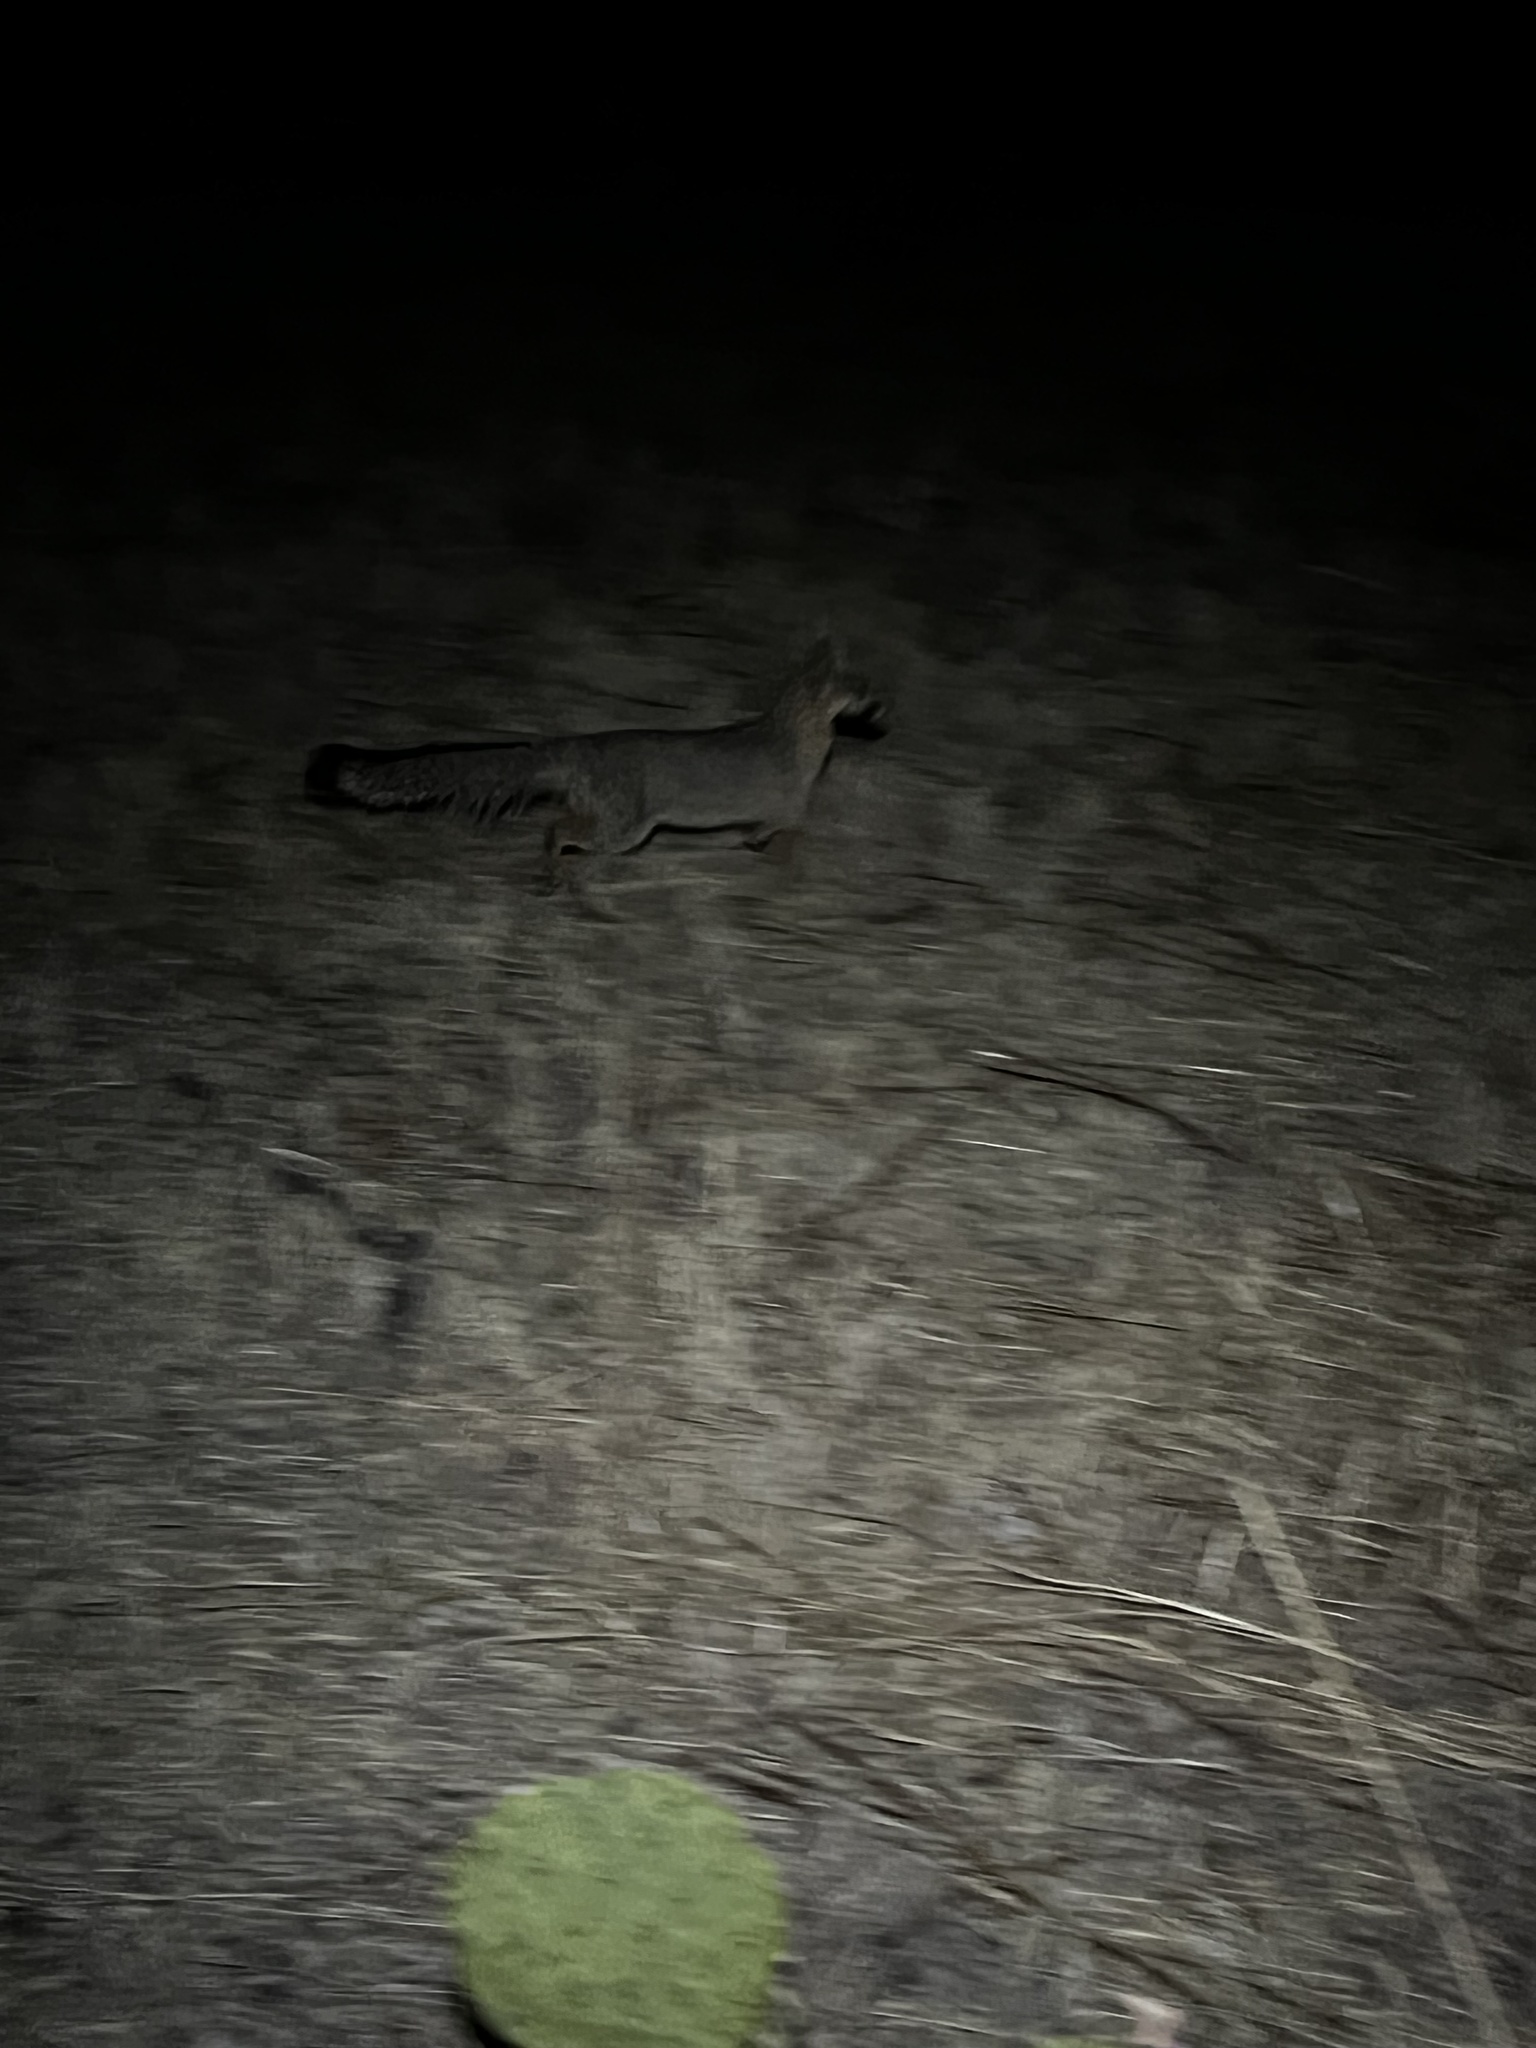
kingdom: Animalia
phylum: Chordata
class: Mammalia
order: Carnivora
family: Canidae
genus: Urocyon
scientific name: Urocyon cinereoargenteus
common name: Gray fox
